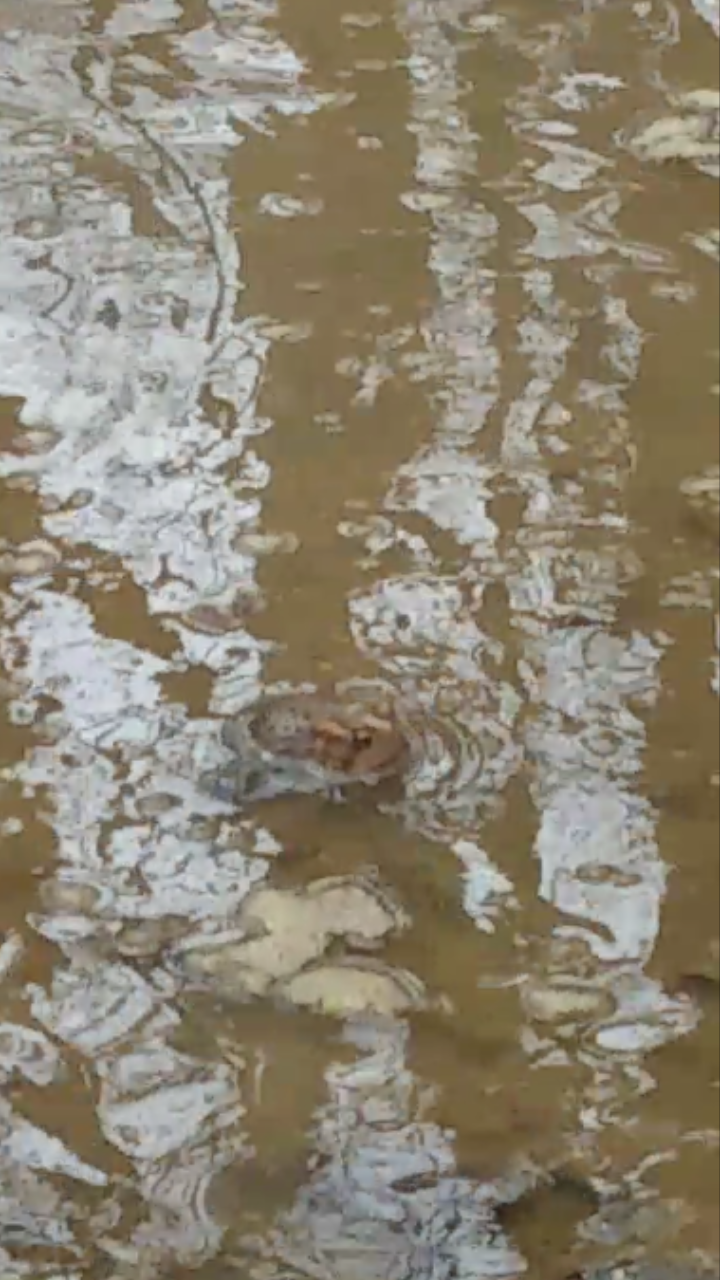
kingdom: Animalia
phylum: Chordata
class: Amphibia
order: Anura
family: Bufonidae
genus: Anaxyrus
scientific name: Anaxyrus americanus
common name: American toad
